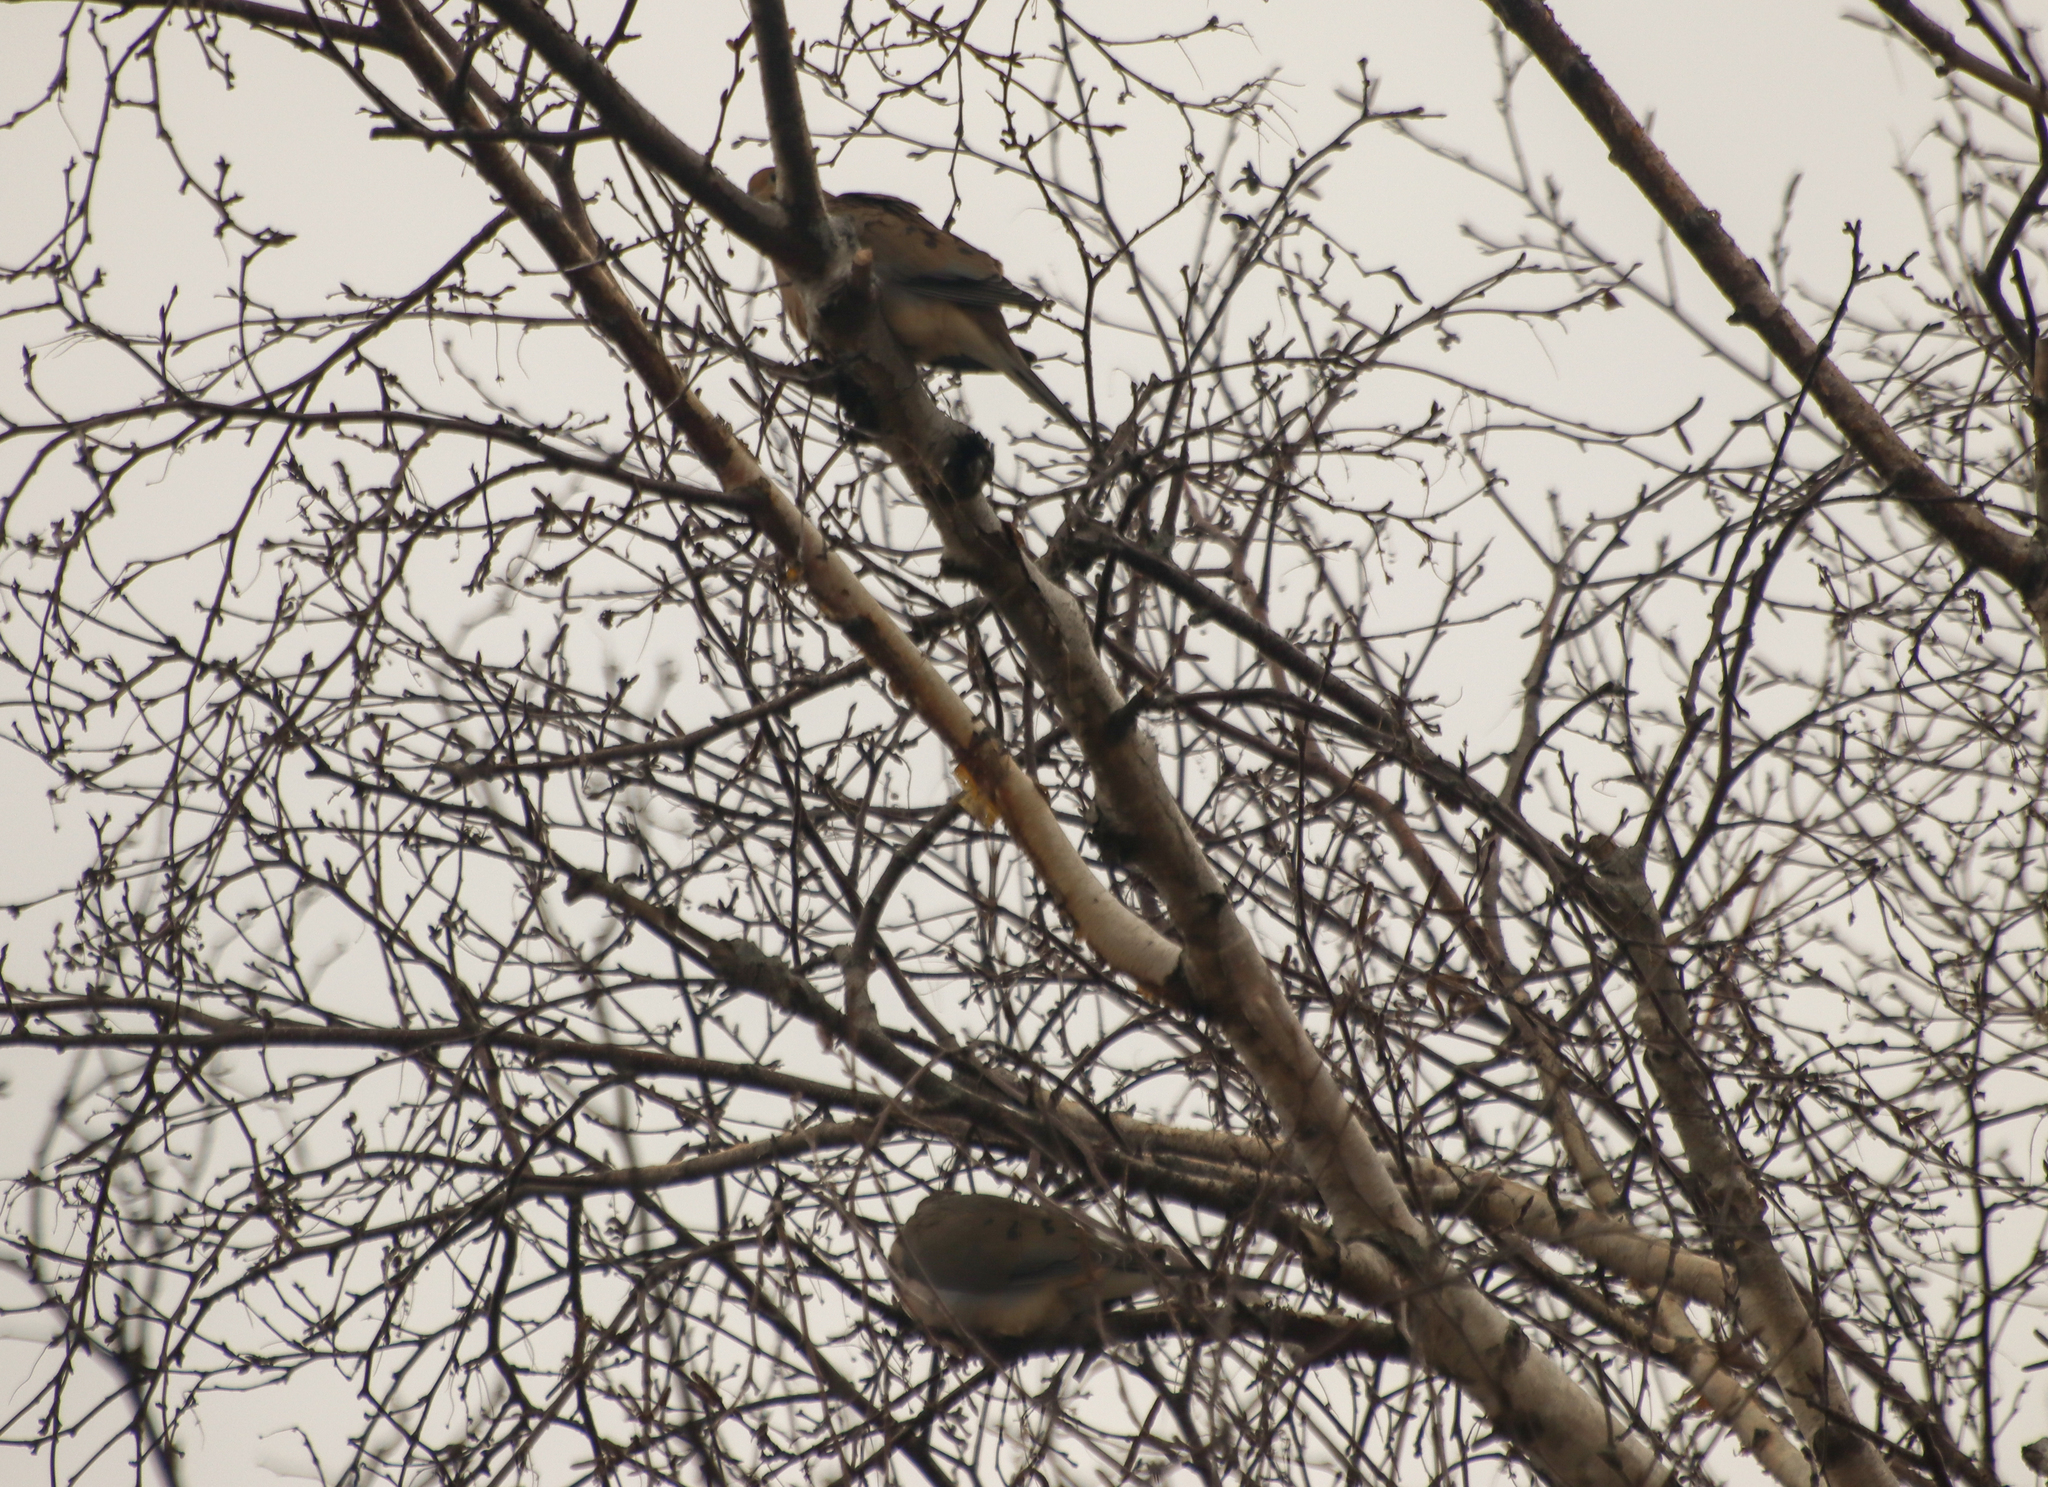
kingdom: Animalia
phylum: Chordata
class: Aves
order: Columbiformes
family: Columbidae
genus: Zenaida
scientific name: Zenaida macroura
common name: Mourning dove
